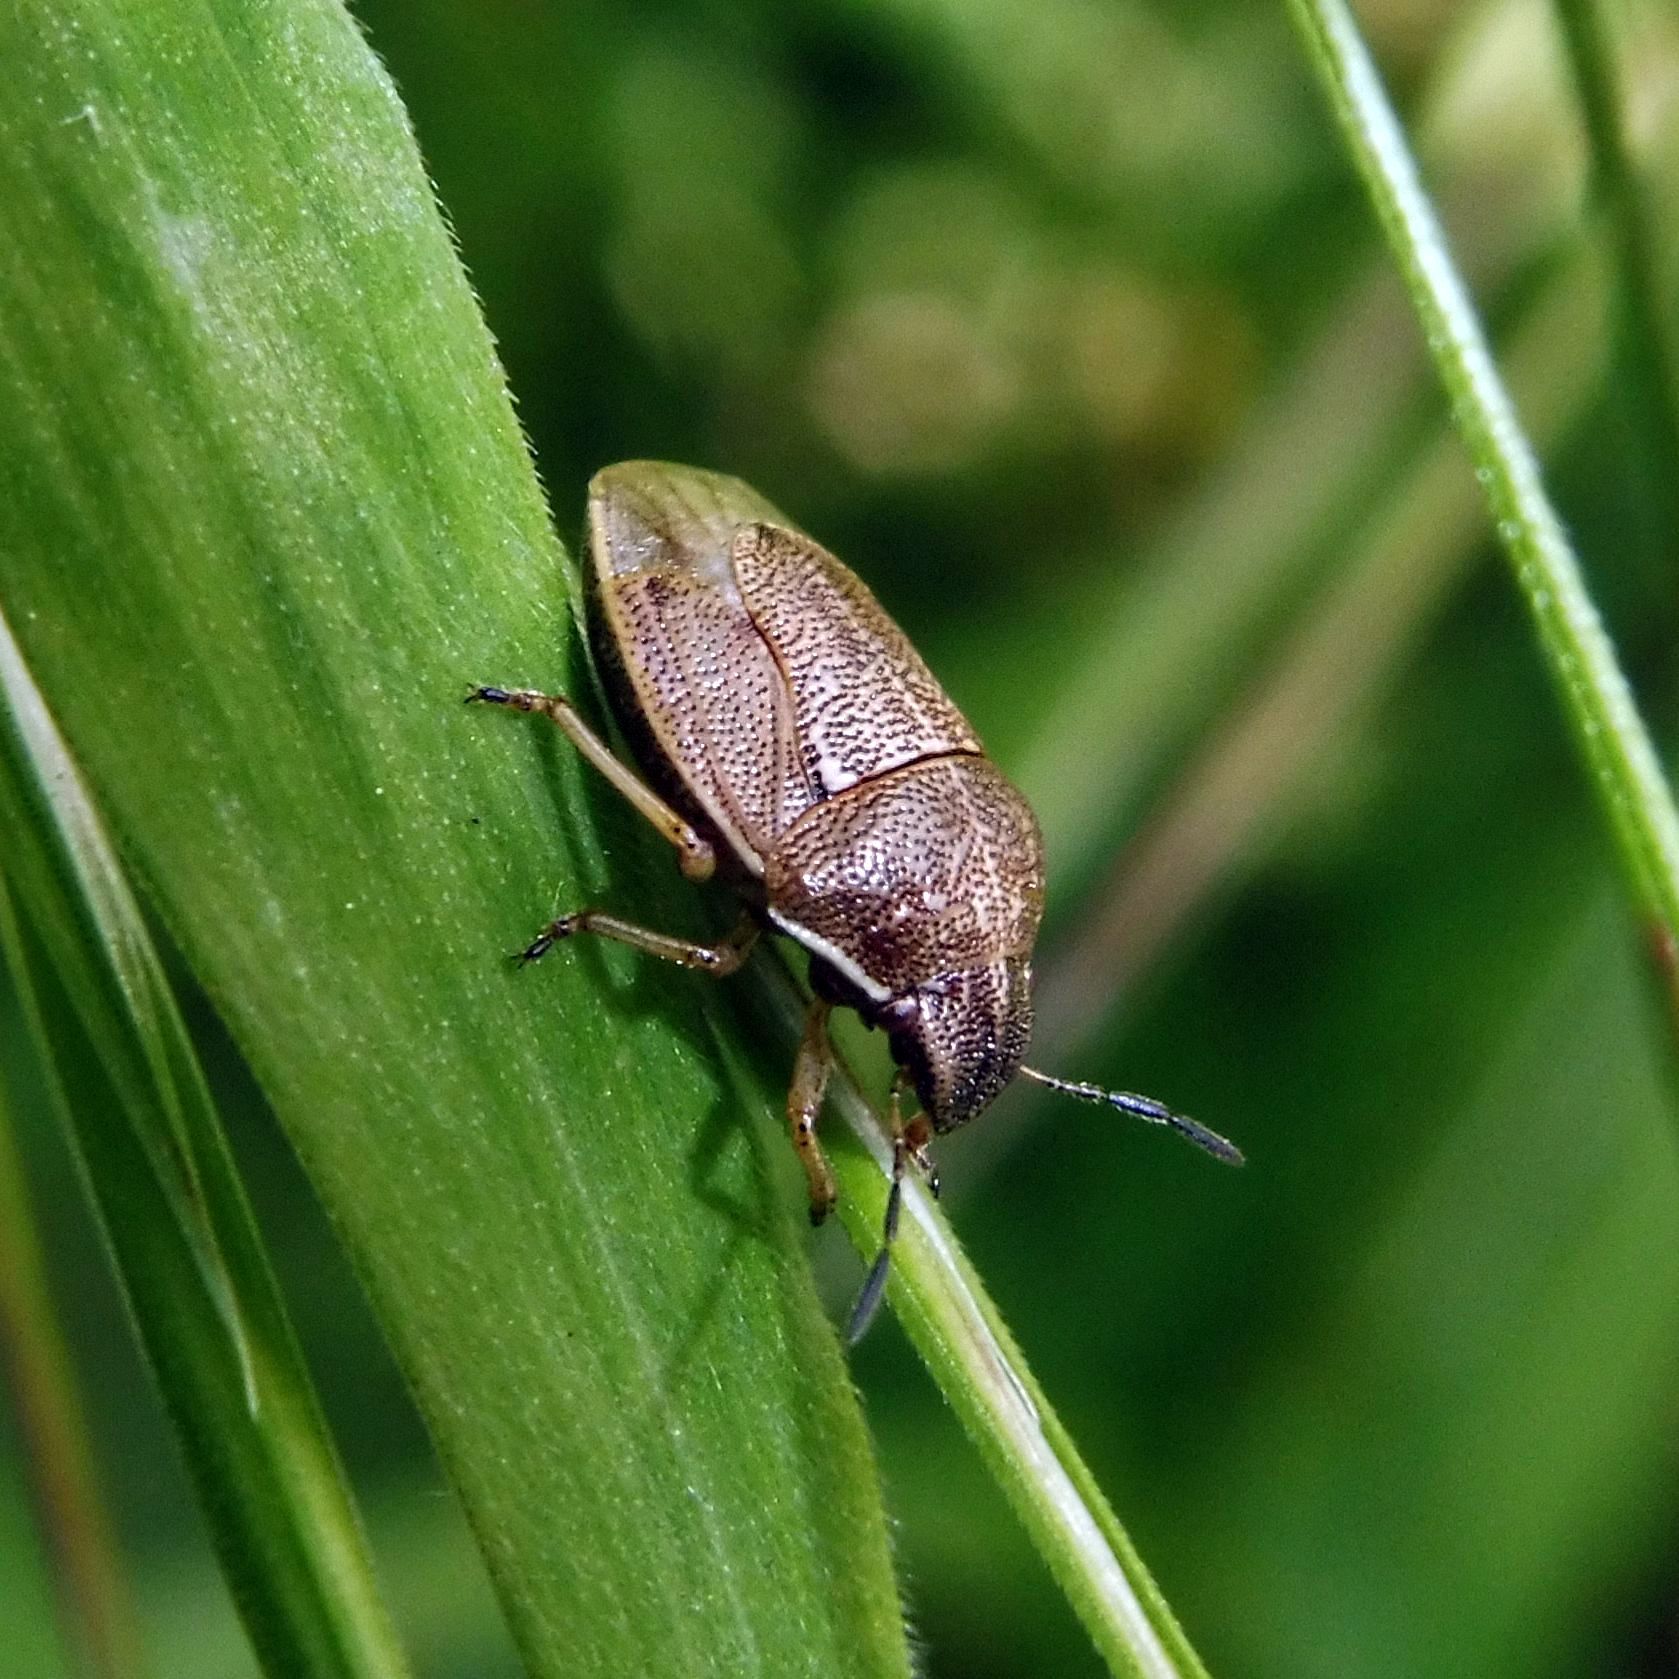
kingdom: Animalia
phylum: Arthropoda
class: Insecta
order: Hemiptera
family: Pentatomidae
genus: Neottiglossa
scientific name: Neottiglossa pusilla
